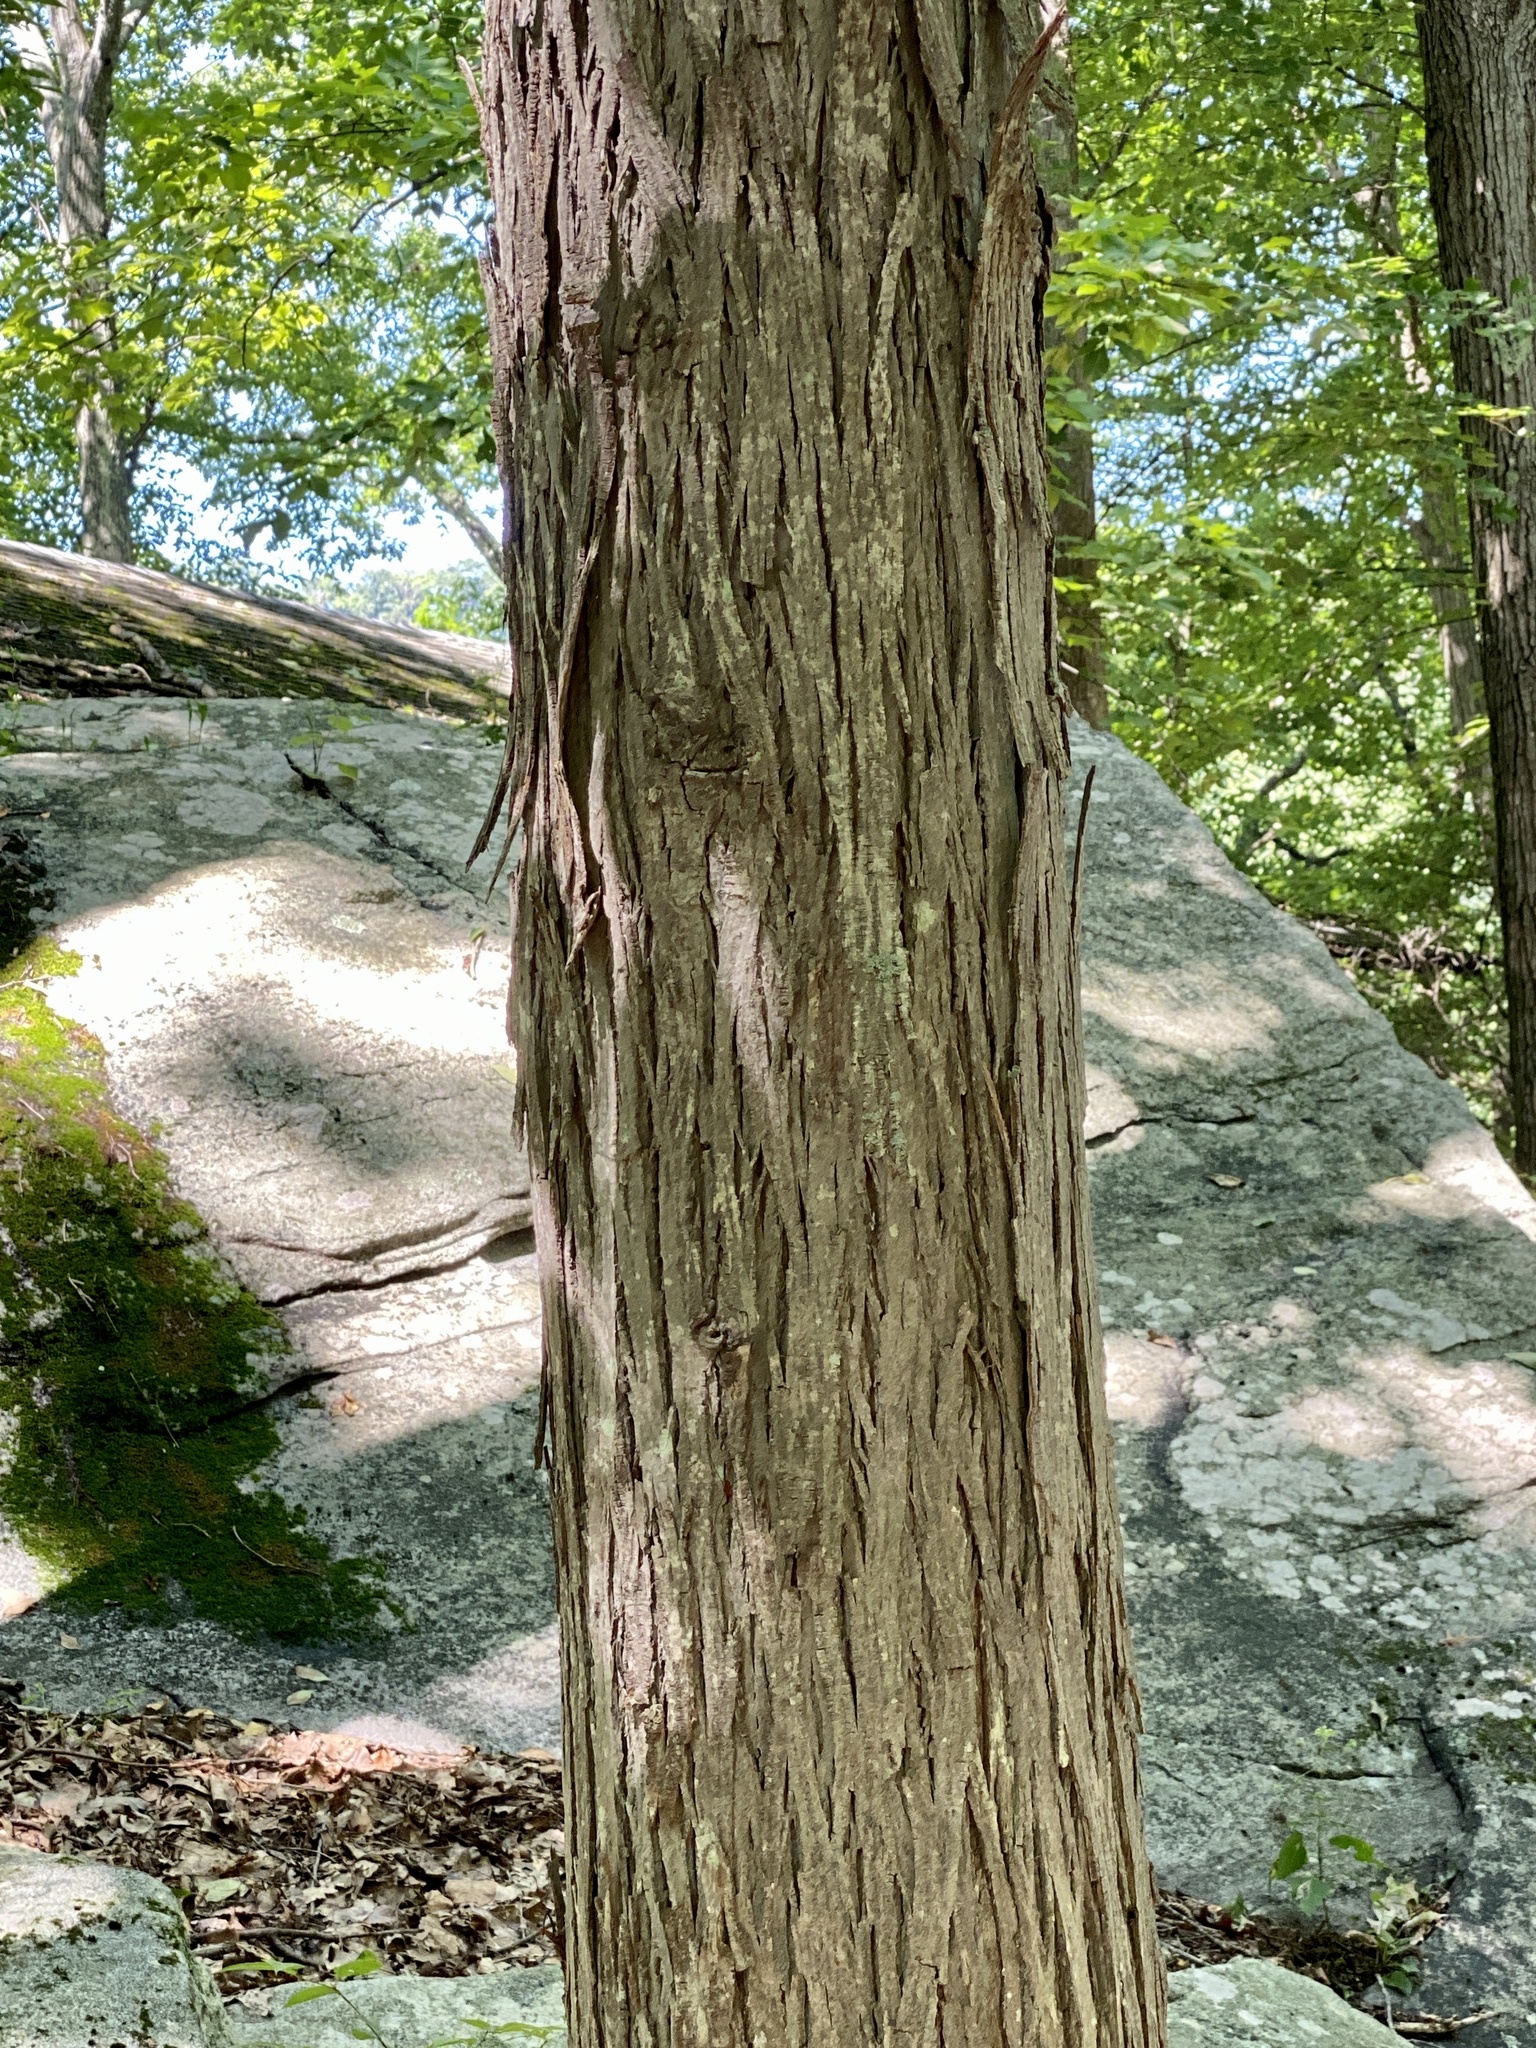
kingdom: Plantae
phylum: Tracheophyta
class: Magnoliopsida
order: Fagales
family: Juglandaceae
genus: Carya
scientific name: Carya ovata
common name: Shagbark hickory
